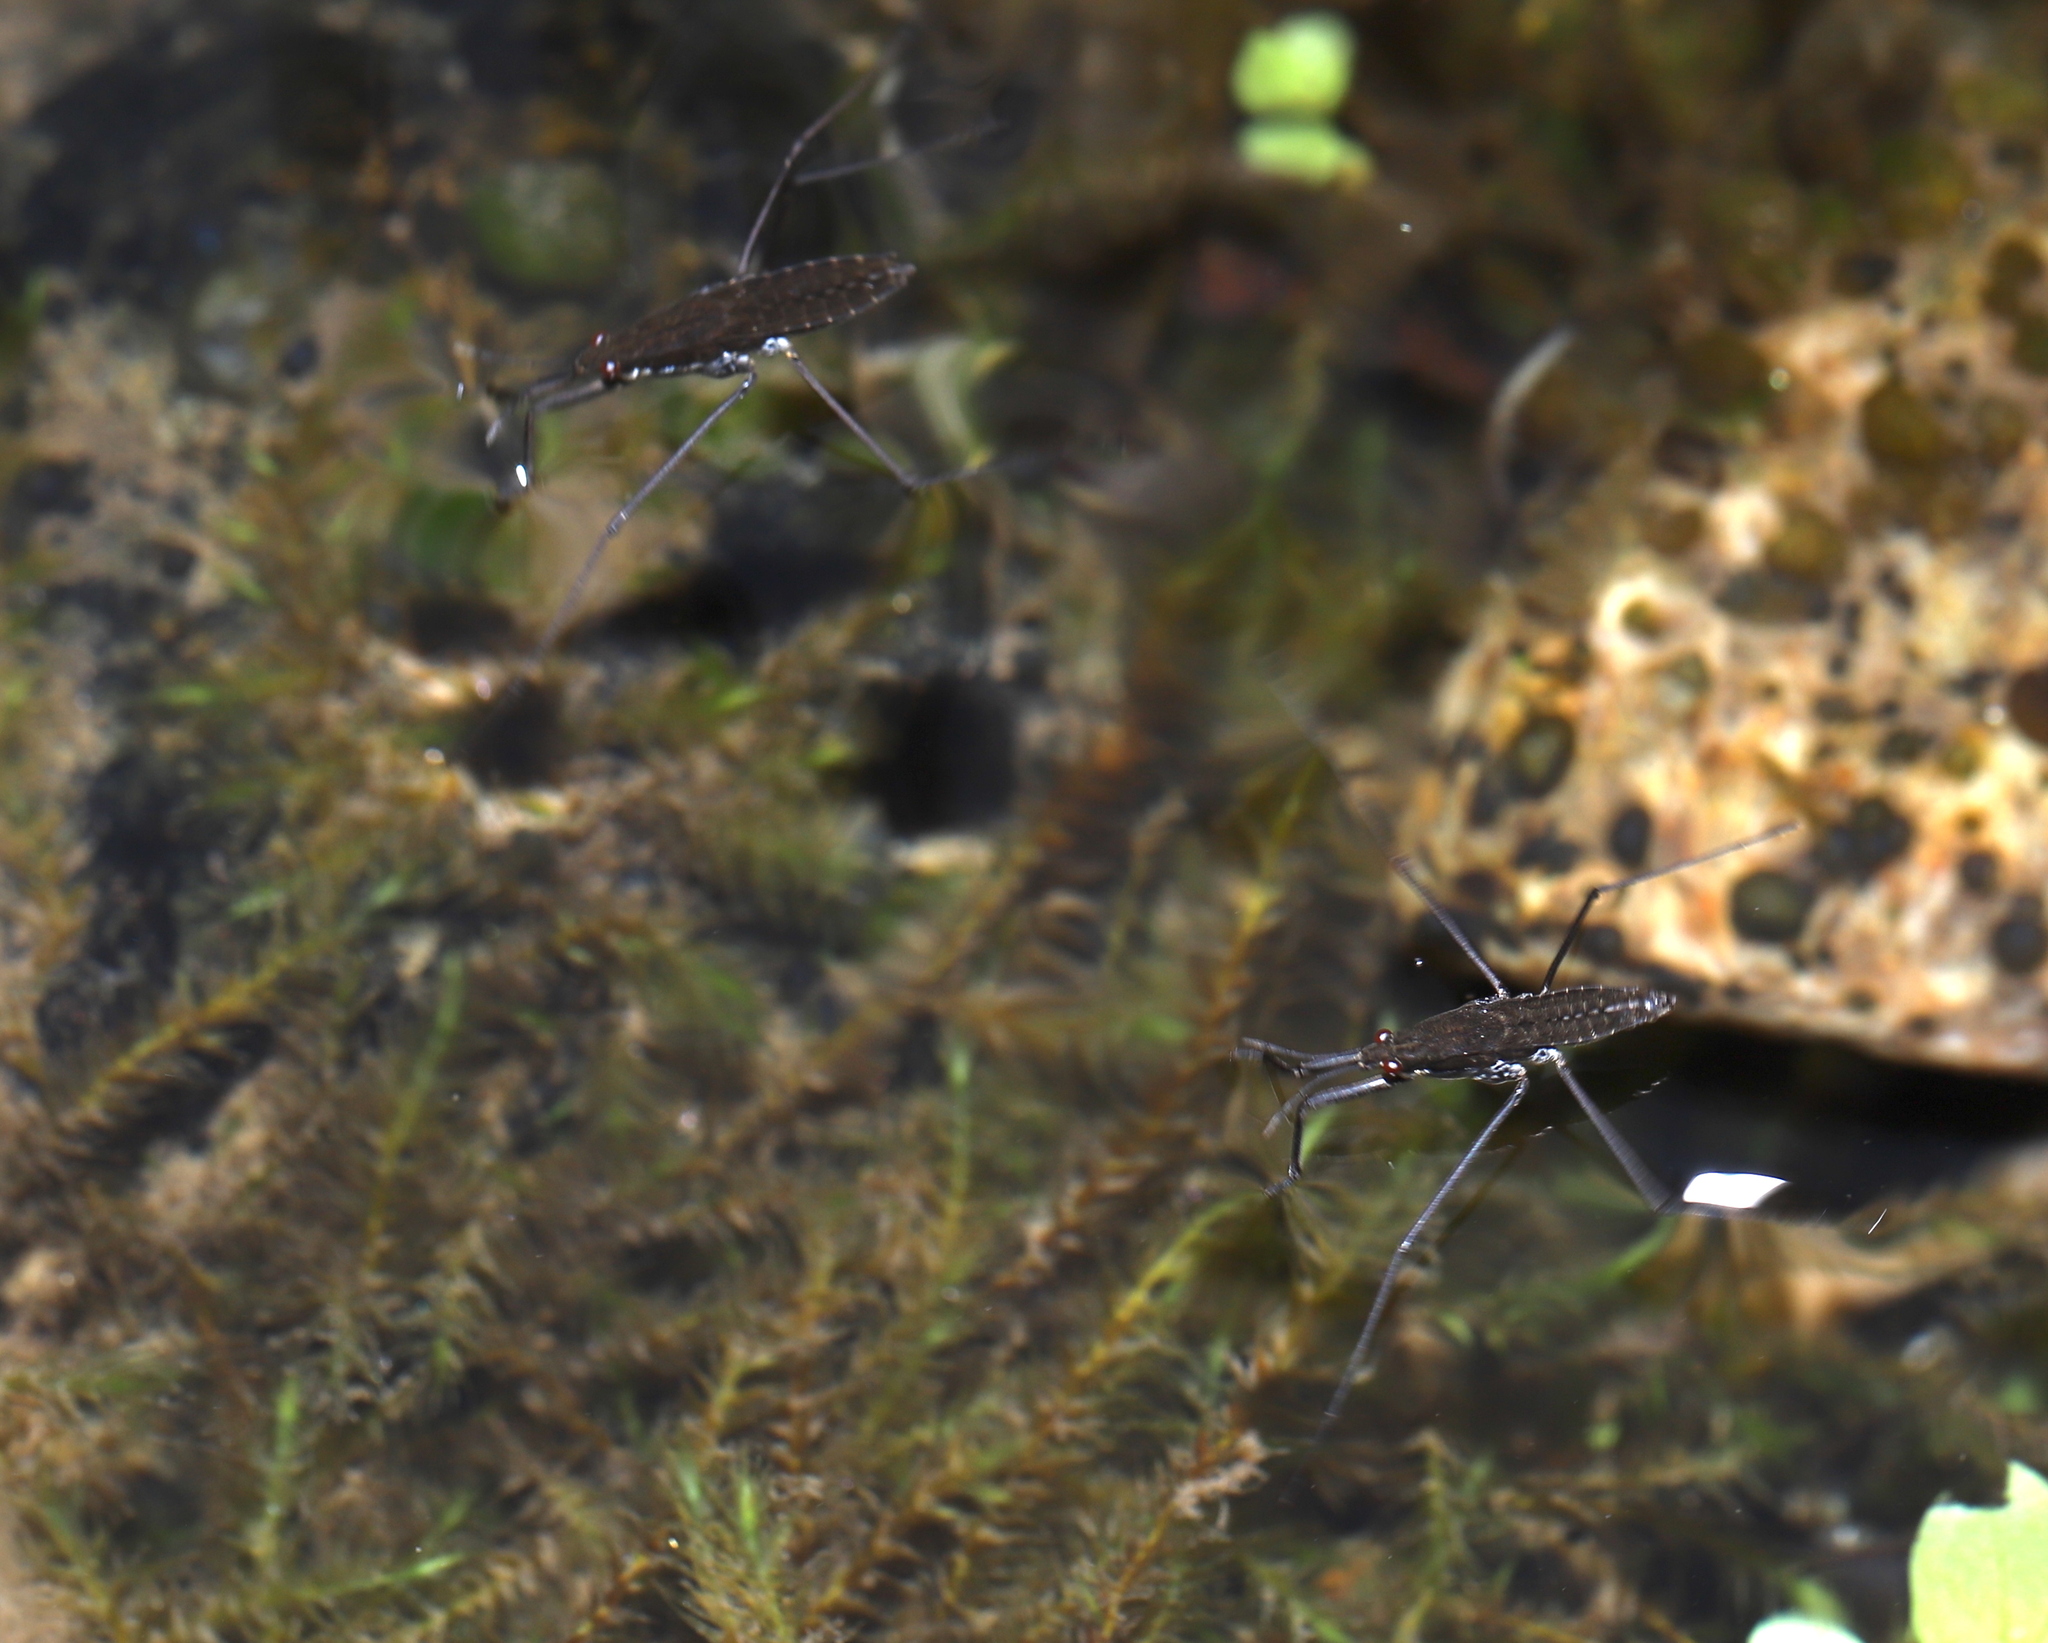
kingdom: Animalia
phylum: Arthropoda
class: Insecta
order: Hemiptera
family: Gerridae
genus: Aquarius
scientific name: Aquarius remigis
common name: Common water strider
